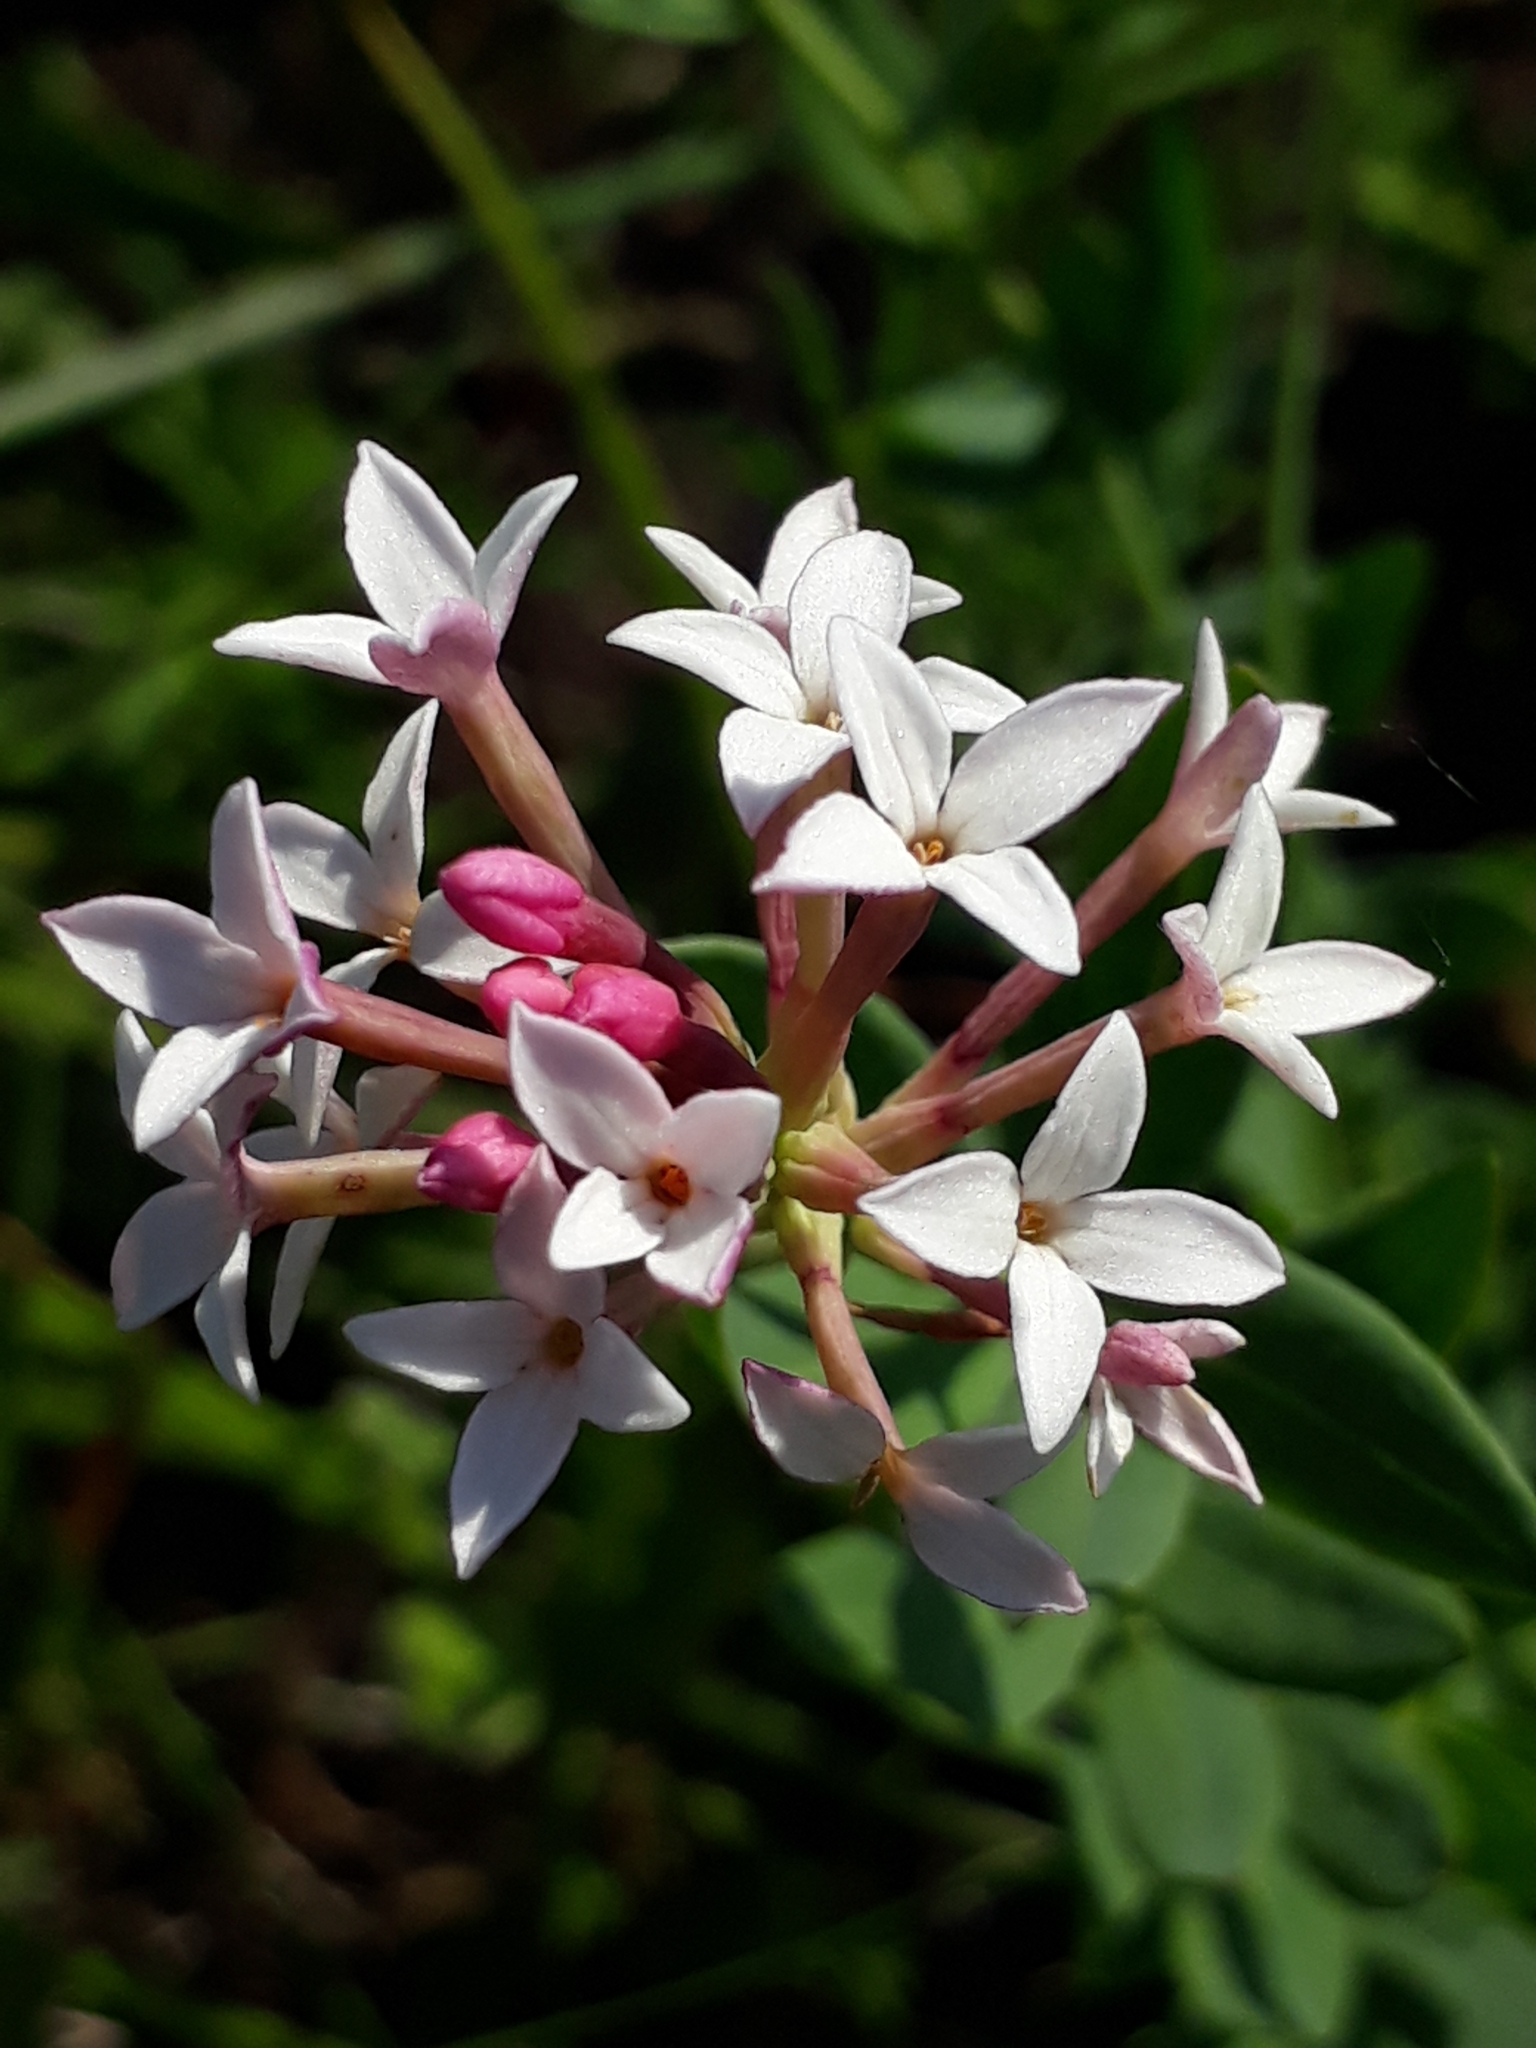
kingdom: Plantae
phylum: Tracheophyta
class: Magnoliopsida
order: Malvales
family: Thymelaeaceae
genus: Diarthron
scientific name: Diarthron altaicum
